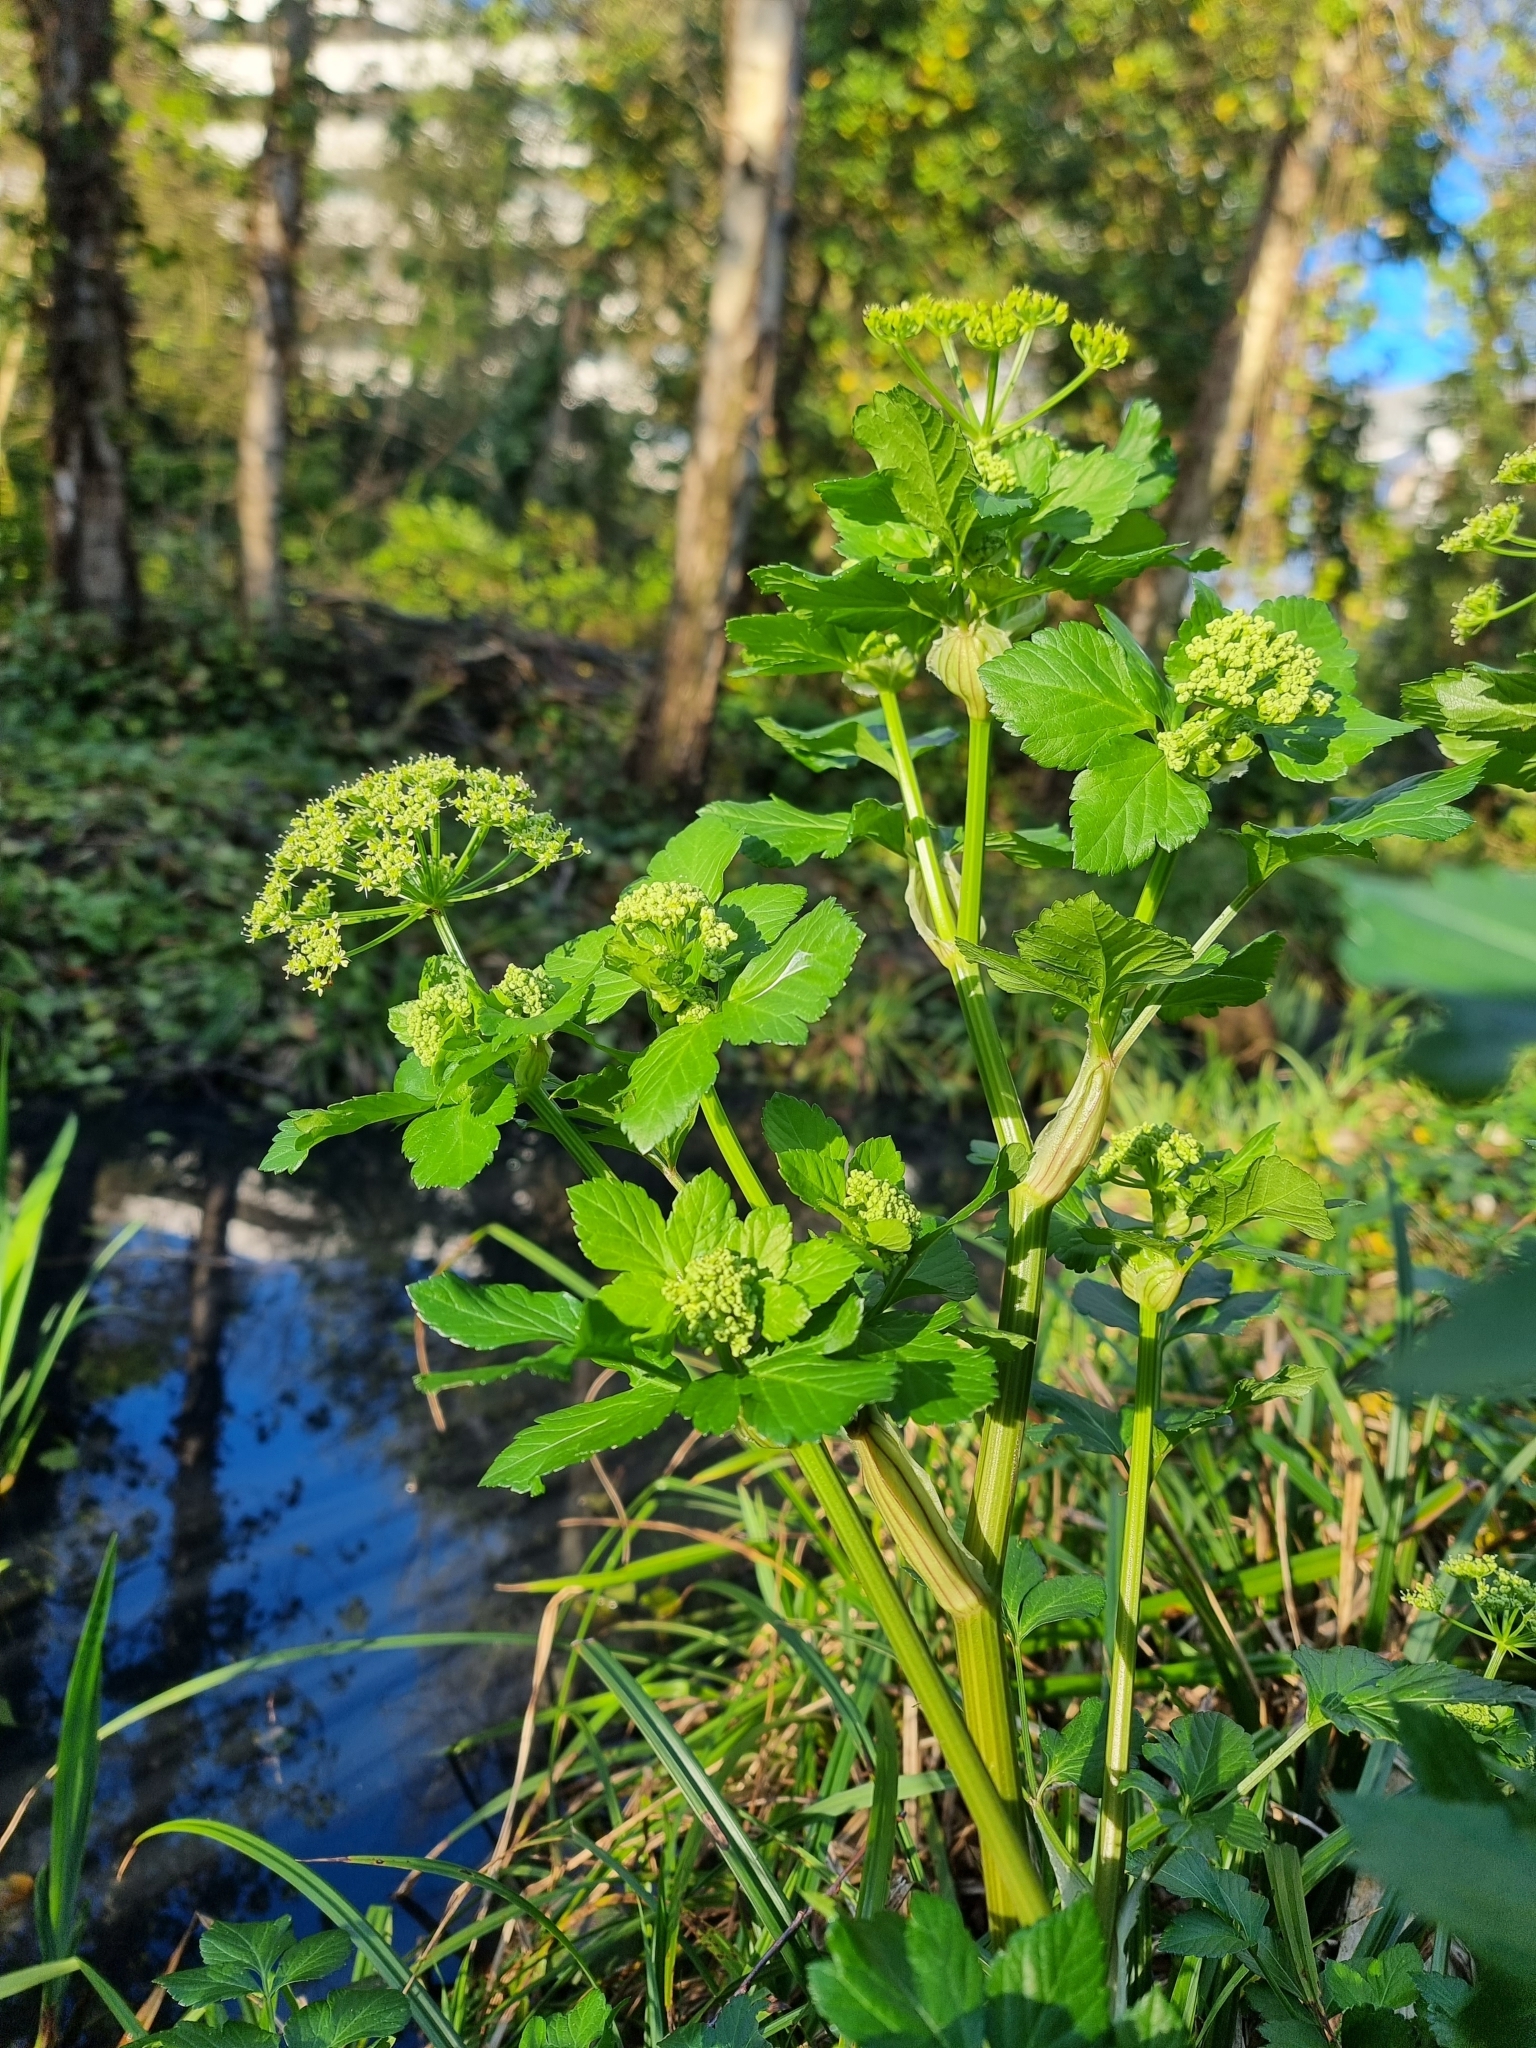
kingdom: Plantae
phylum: Tracheophyta
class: Magnoliopsida
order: Apiales
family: Apiaceae
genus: Smyrnium
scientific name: Smyrnium olusatrum
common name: Alexanders
